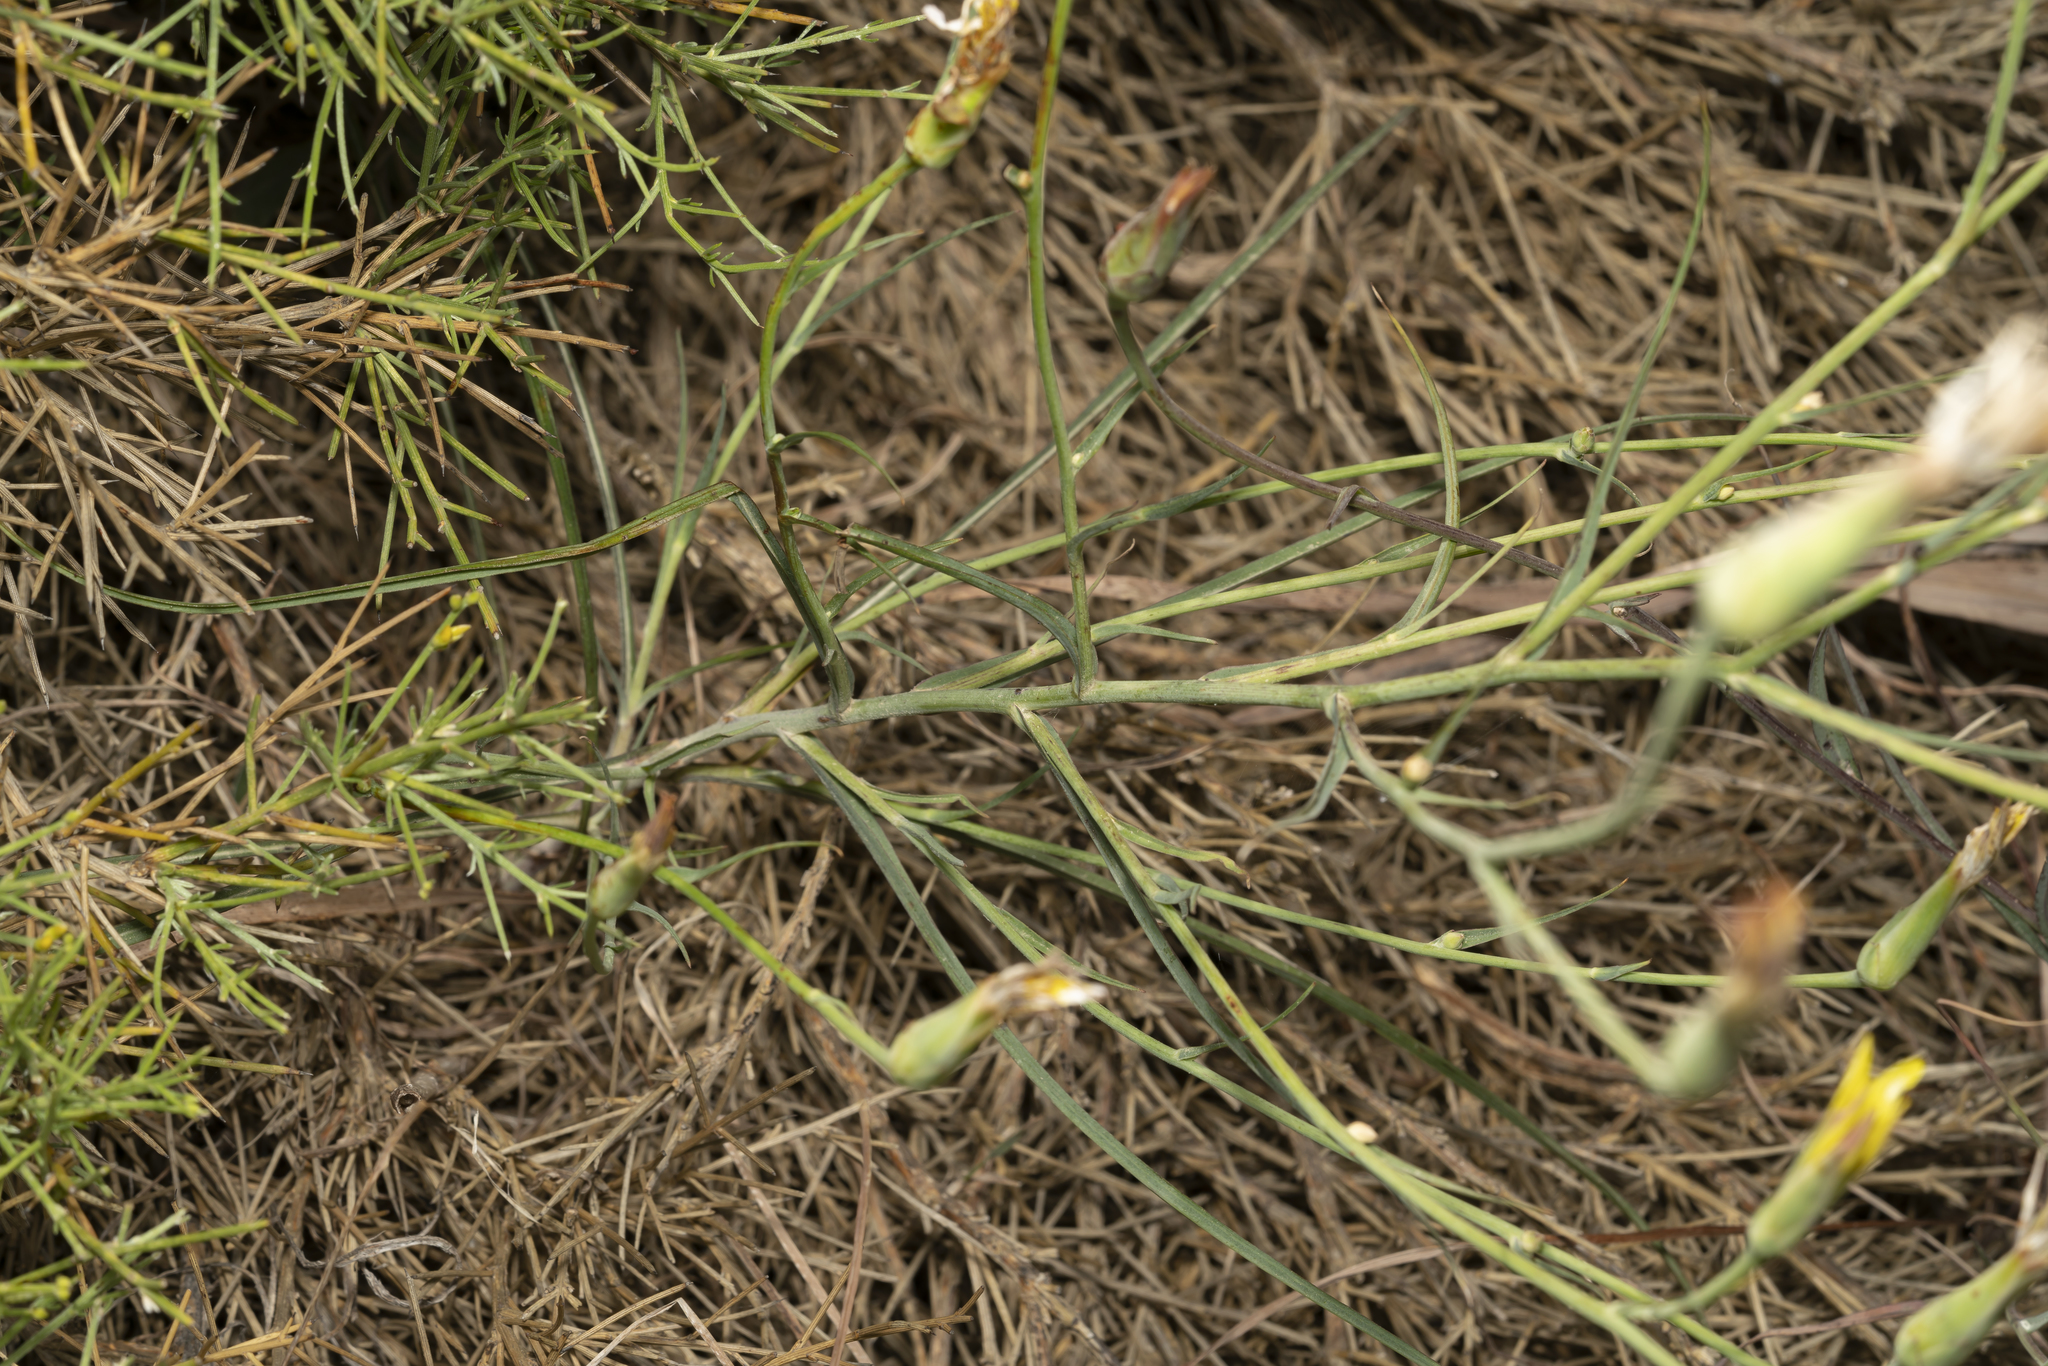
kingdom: Plantae
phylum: Tracheophyta
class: Magnoliopsida
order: Asterales
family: Asteraceae
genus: Candollea
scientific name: Candollea elata
